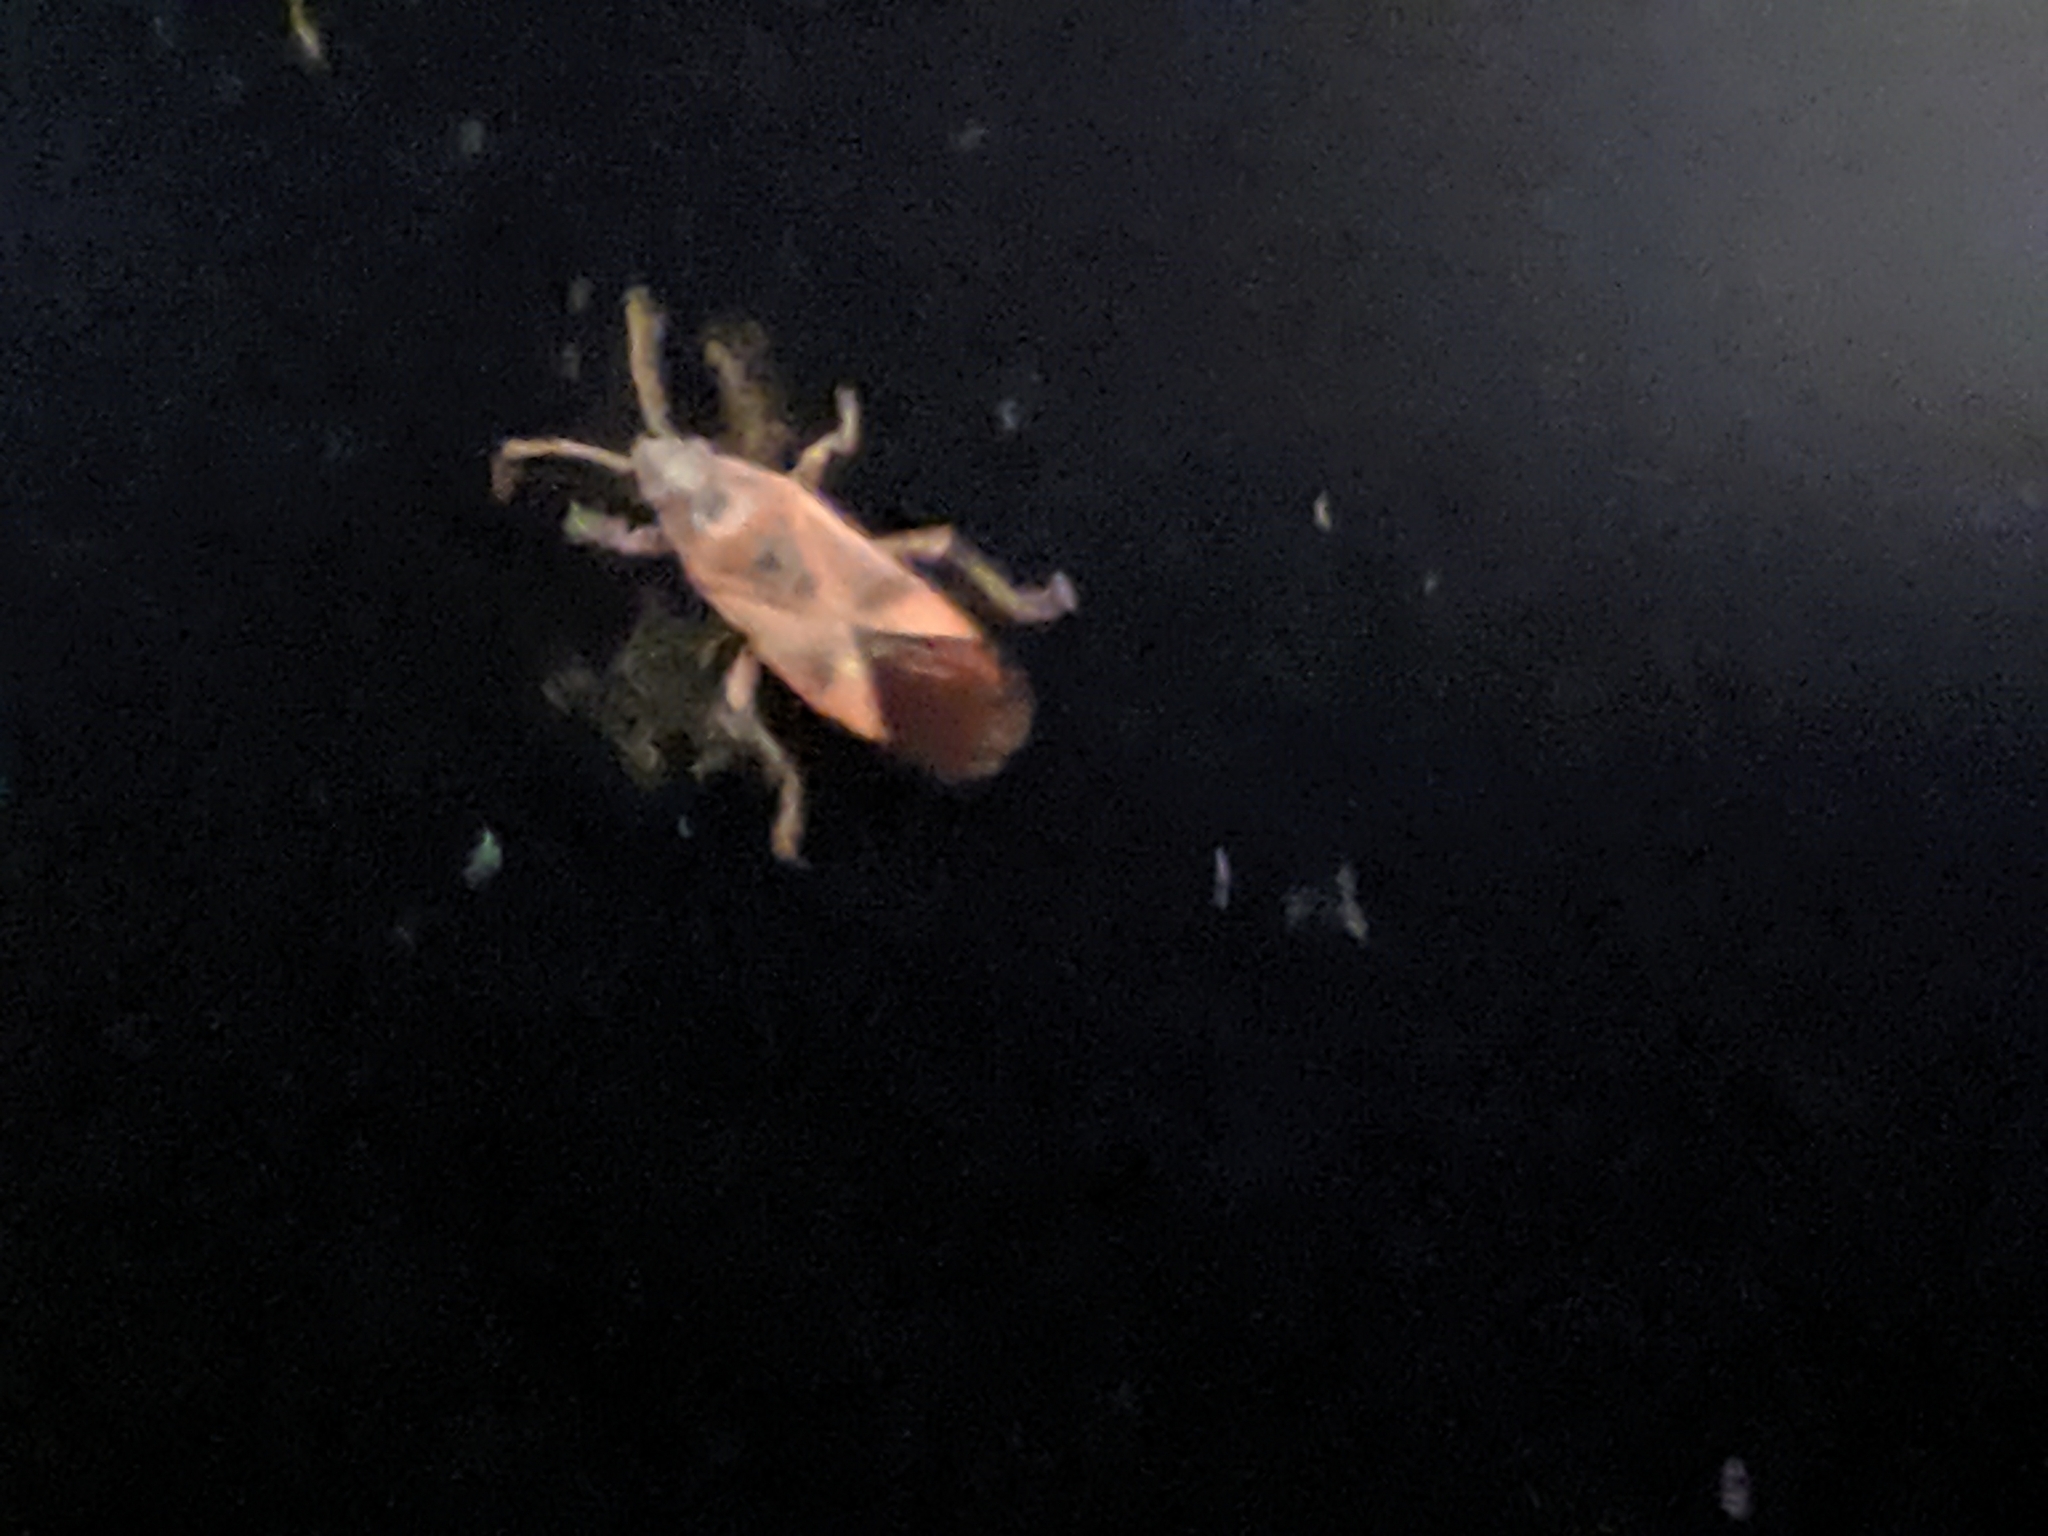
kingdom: Animalia
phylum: Arthropoda
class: Insecta
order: Hemiptera
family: Lygaeidae
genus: Arocatus
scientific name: Arocatus
